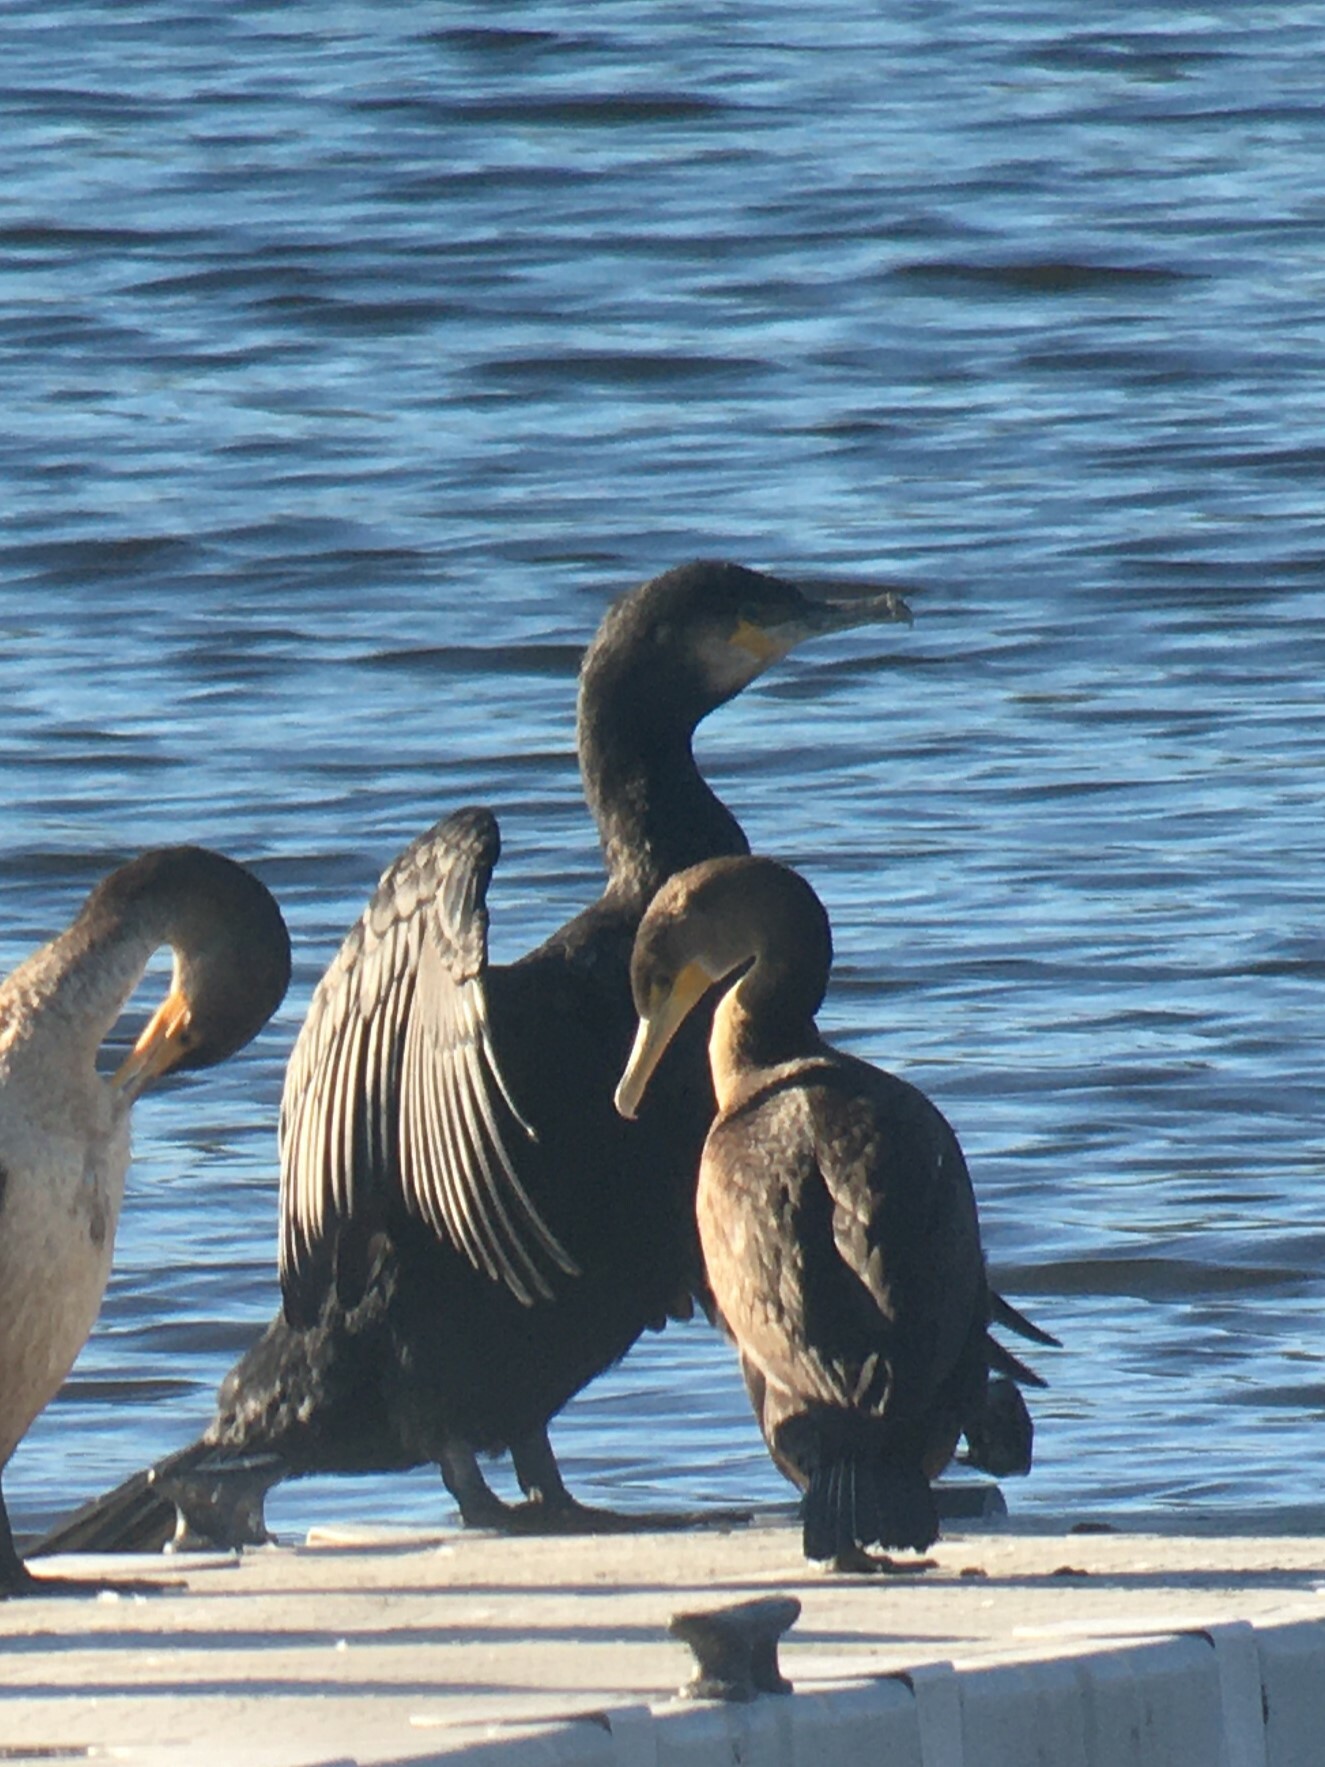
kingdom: Animalia
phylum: Chordata
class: Aves
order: Suliformes
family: Phalacrocoracidae
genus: Phalacrocorax
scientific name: Phalacrocorax carbo
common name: Great cormorant
